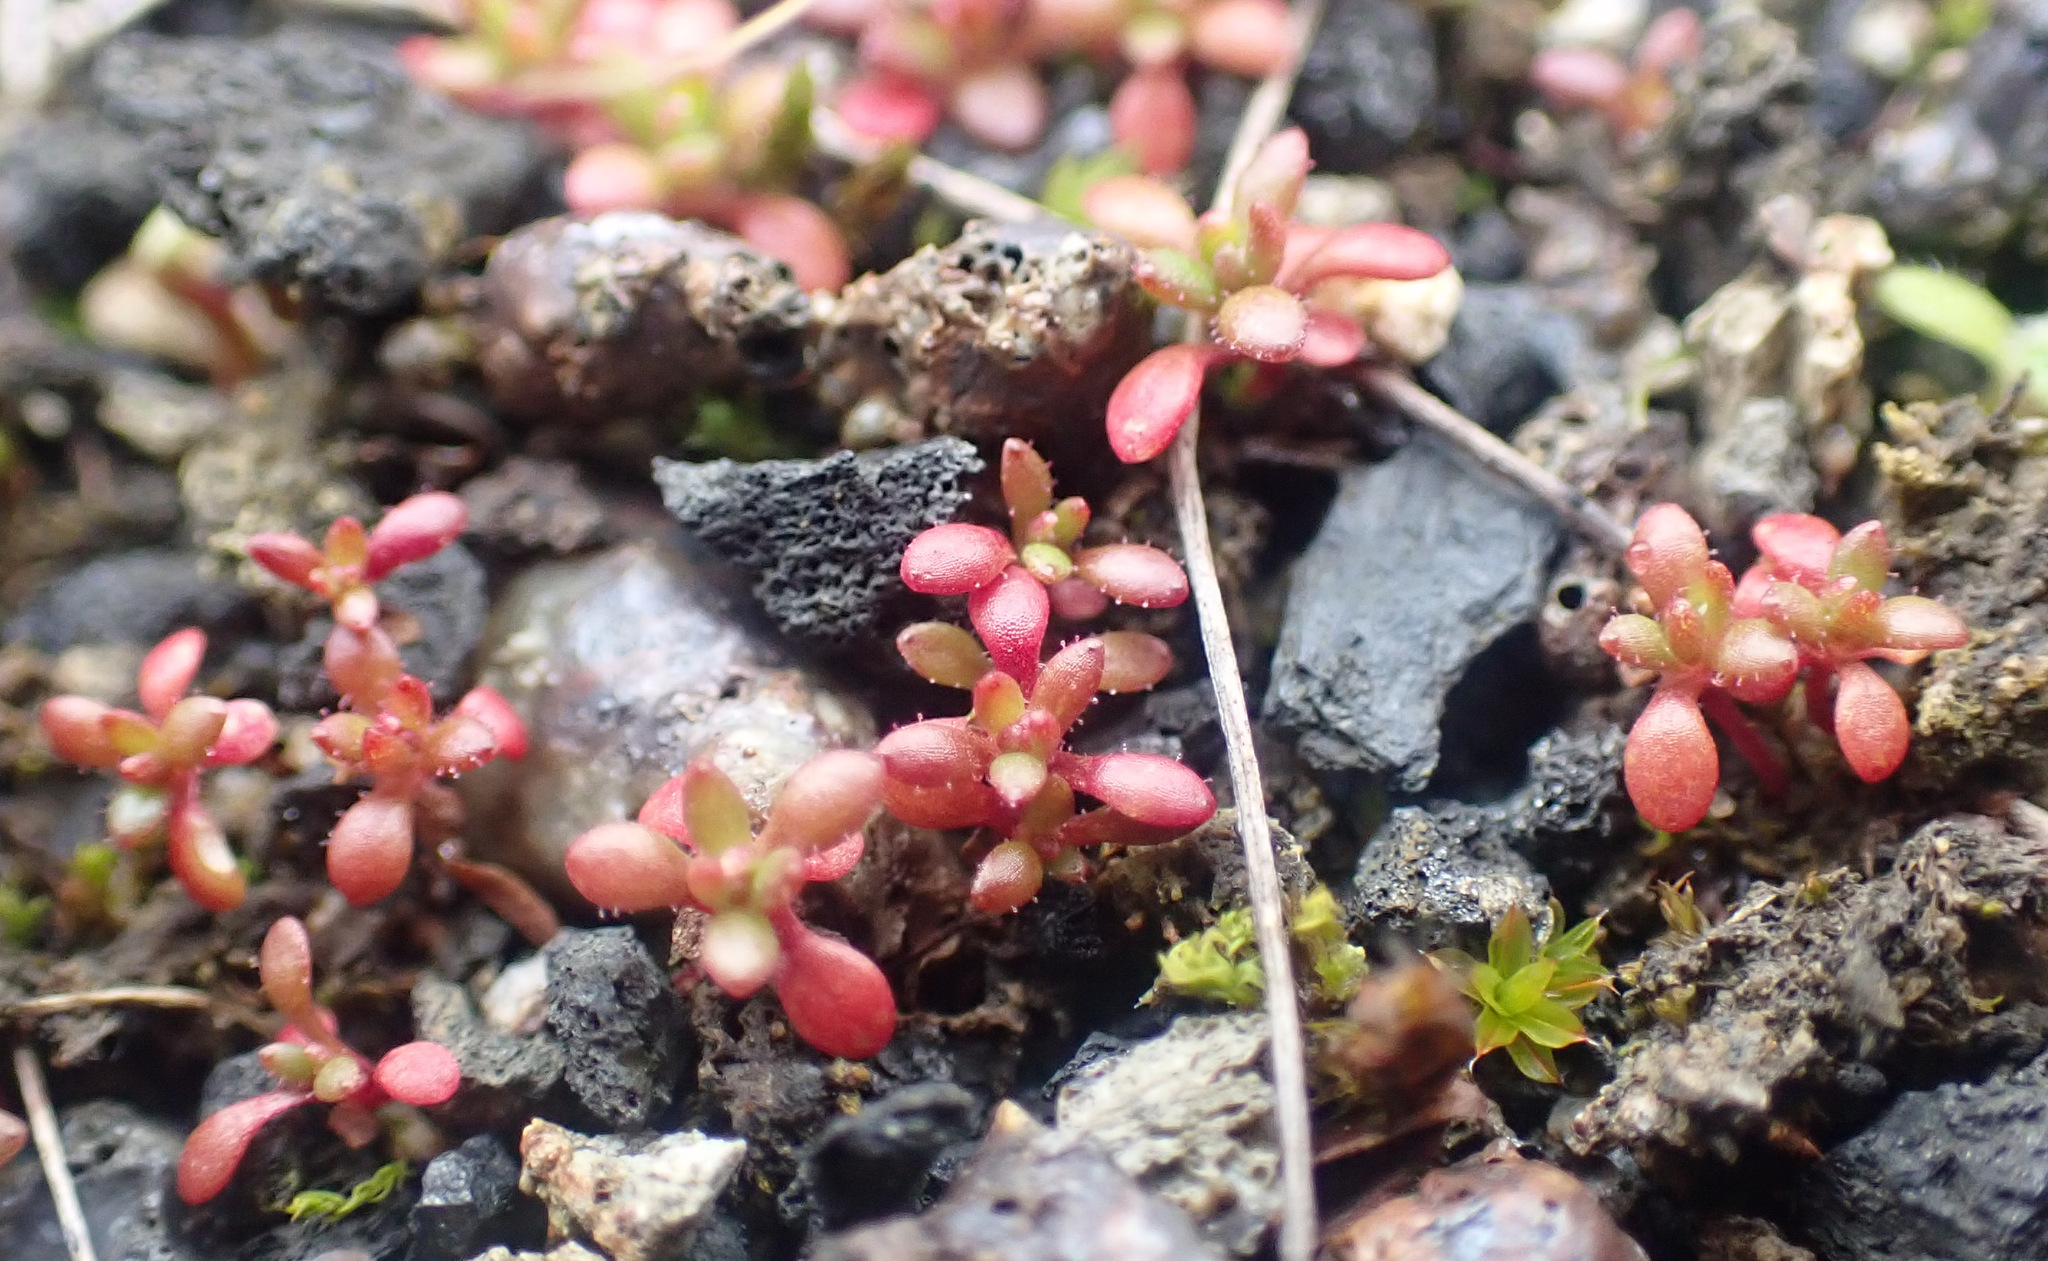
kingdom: Plantae
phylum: Tracheophyta
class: Magnoliopsida
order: Saxifragales
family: Saxifragaceae
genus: Saxifraga
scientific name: Saxifraga tridactylites
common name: Rue-leaved saxifrage
